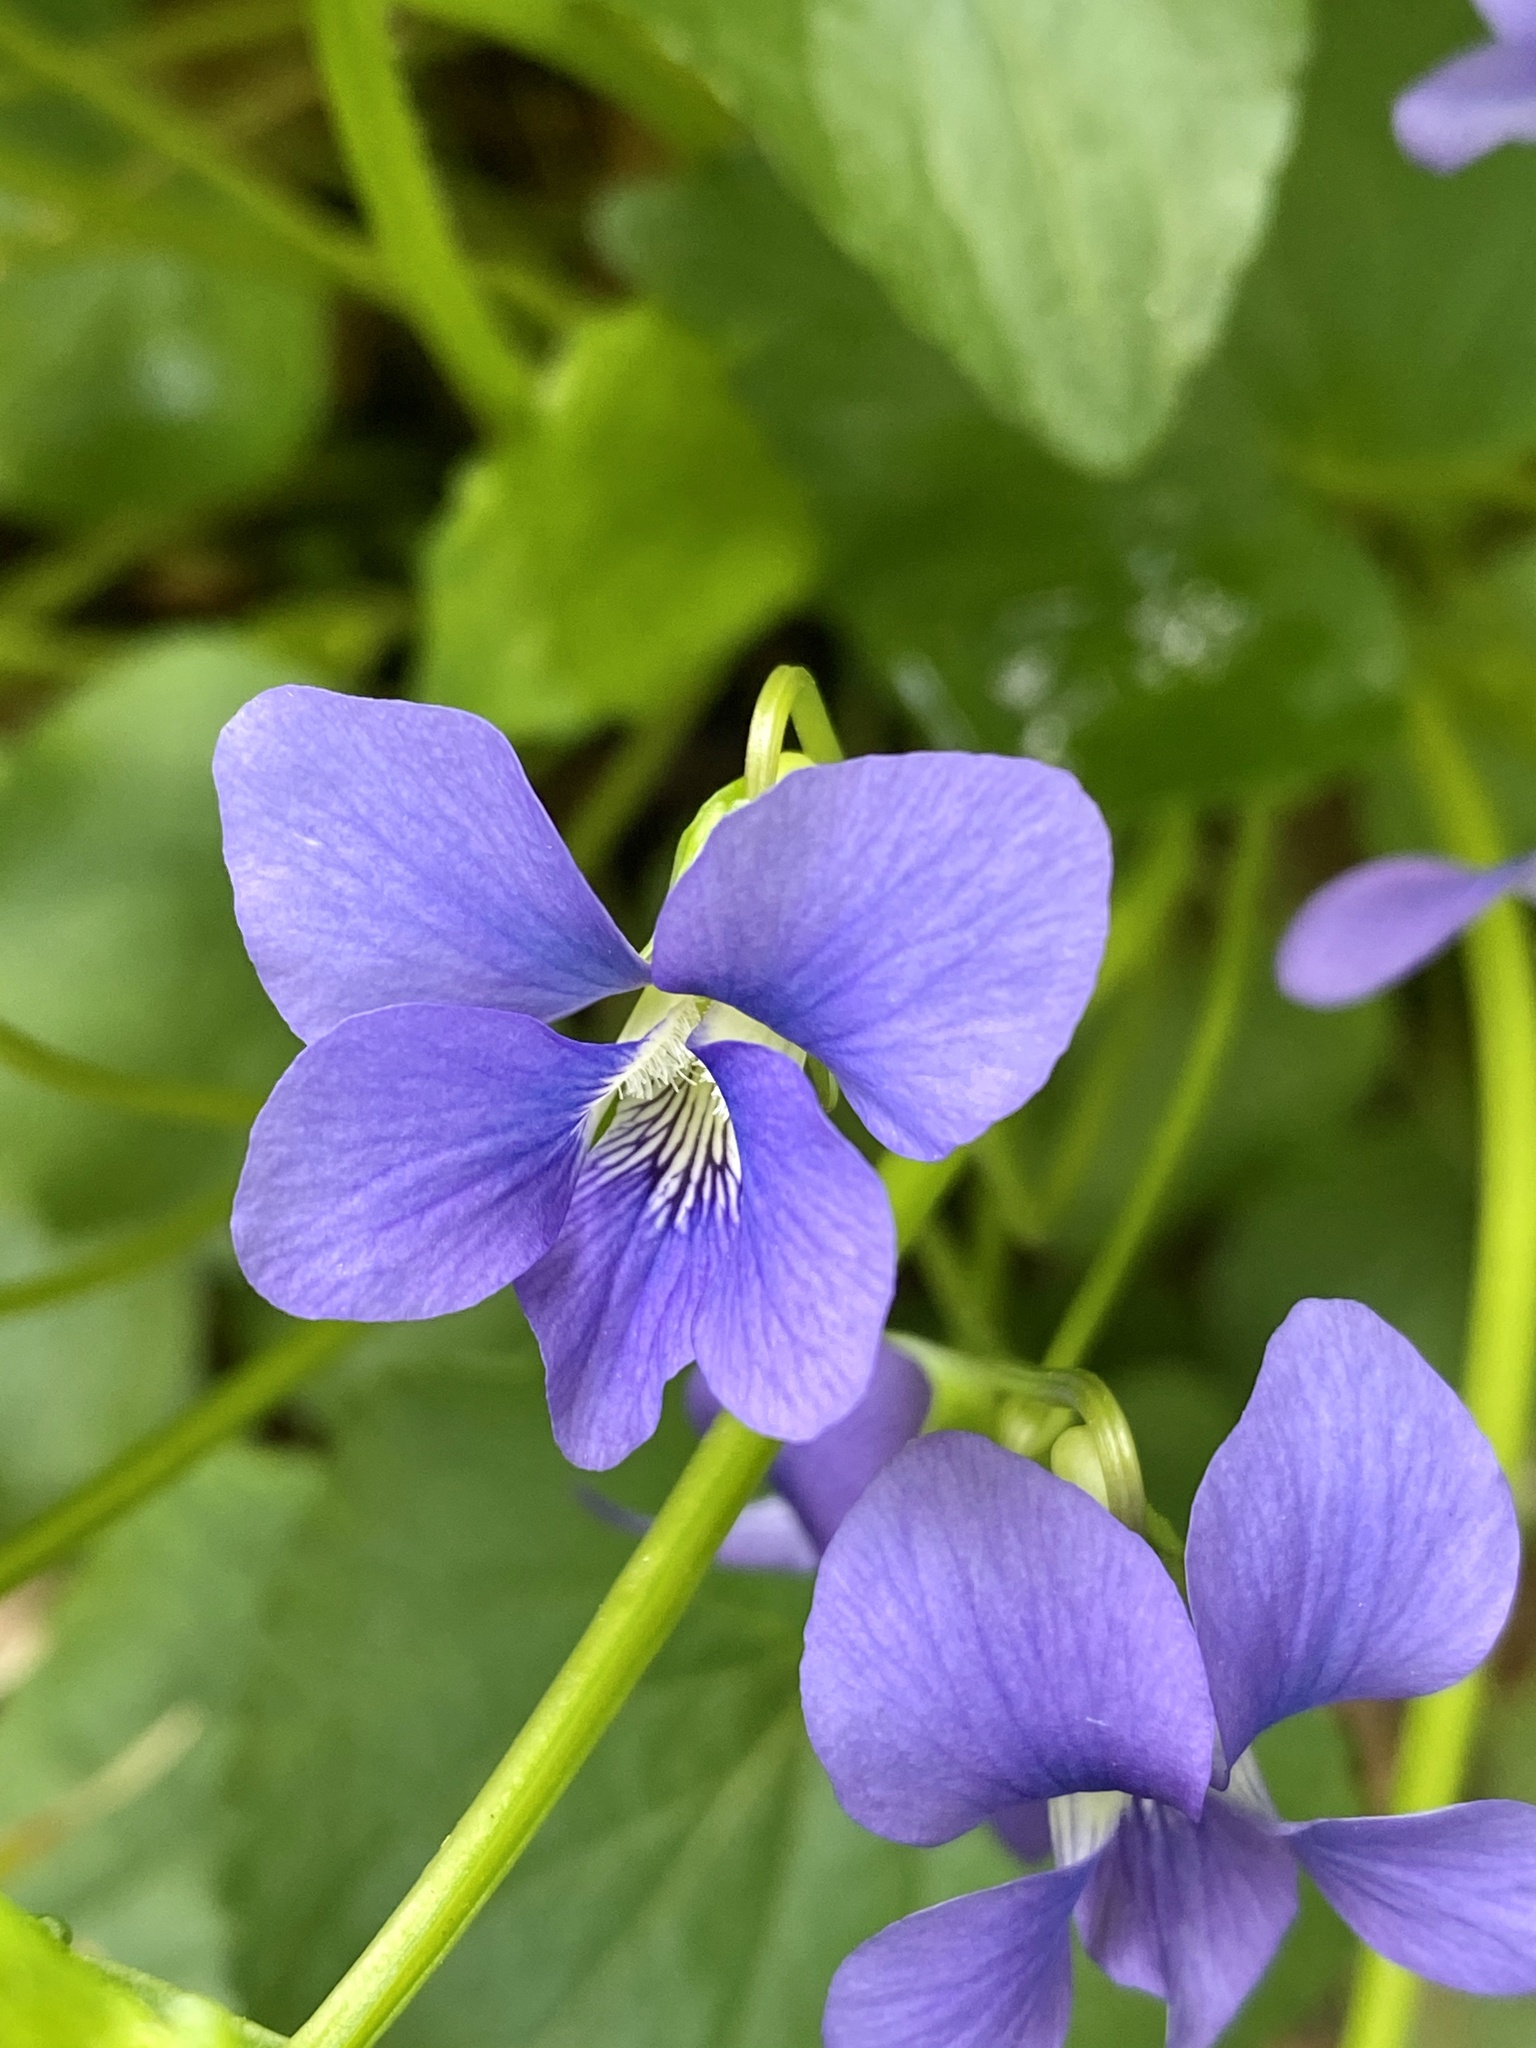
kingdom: Plantae
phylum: Tracheophyta
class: Magnoliopsida
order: Malpighiales
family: Violaceae
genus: Viola
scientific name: Viola sororia
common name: Dooryard violet
